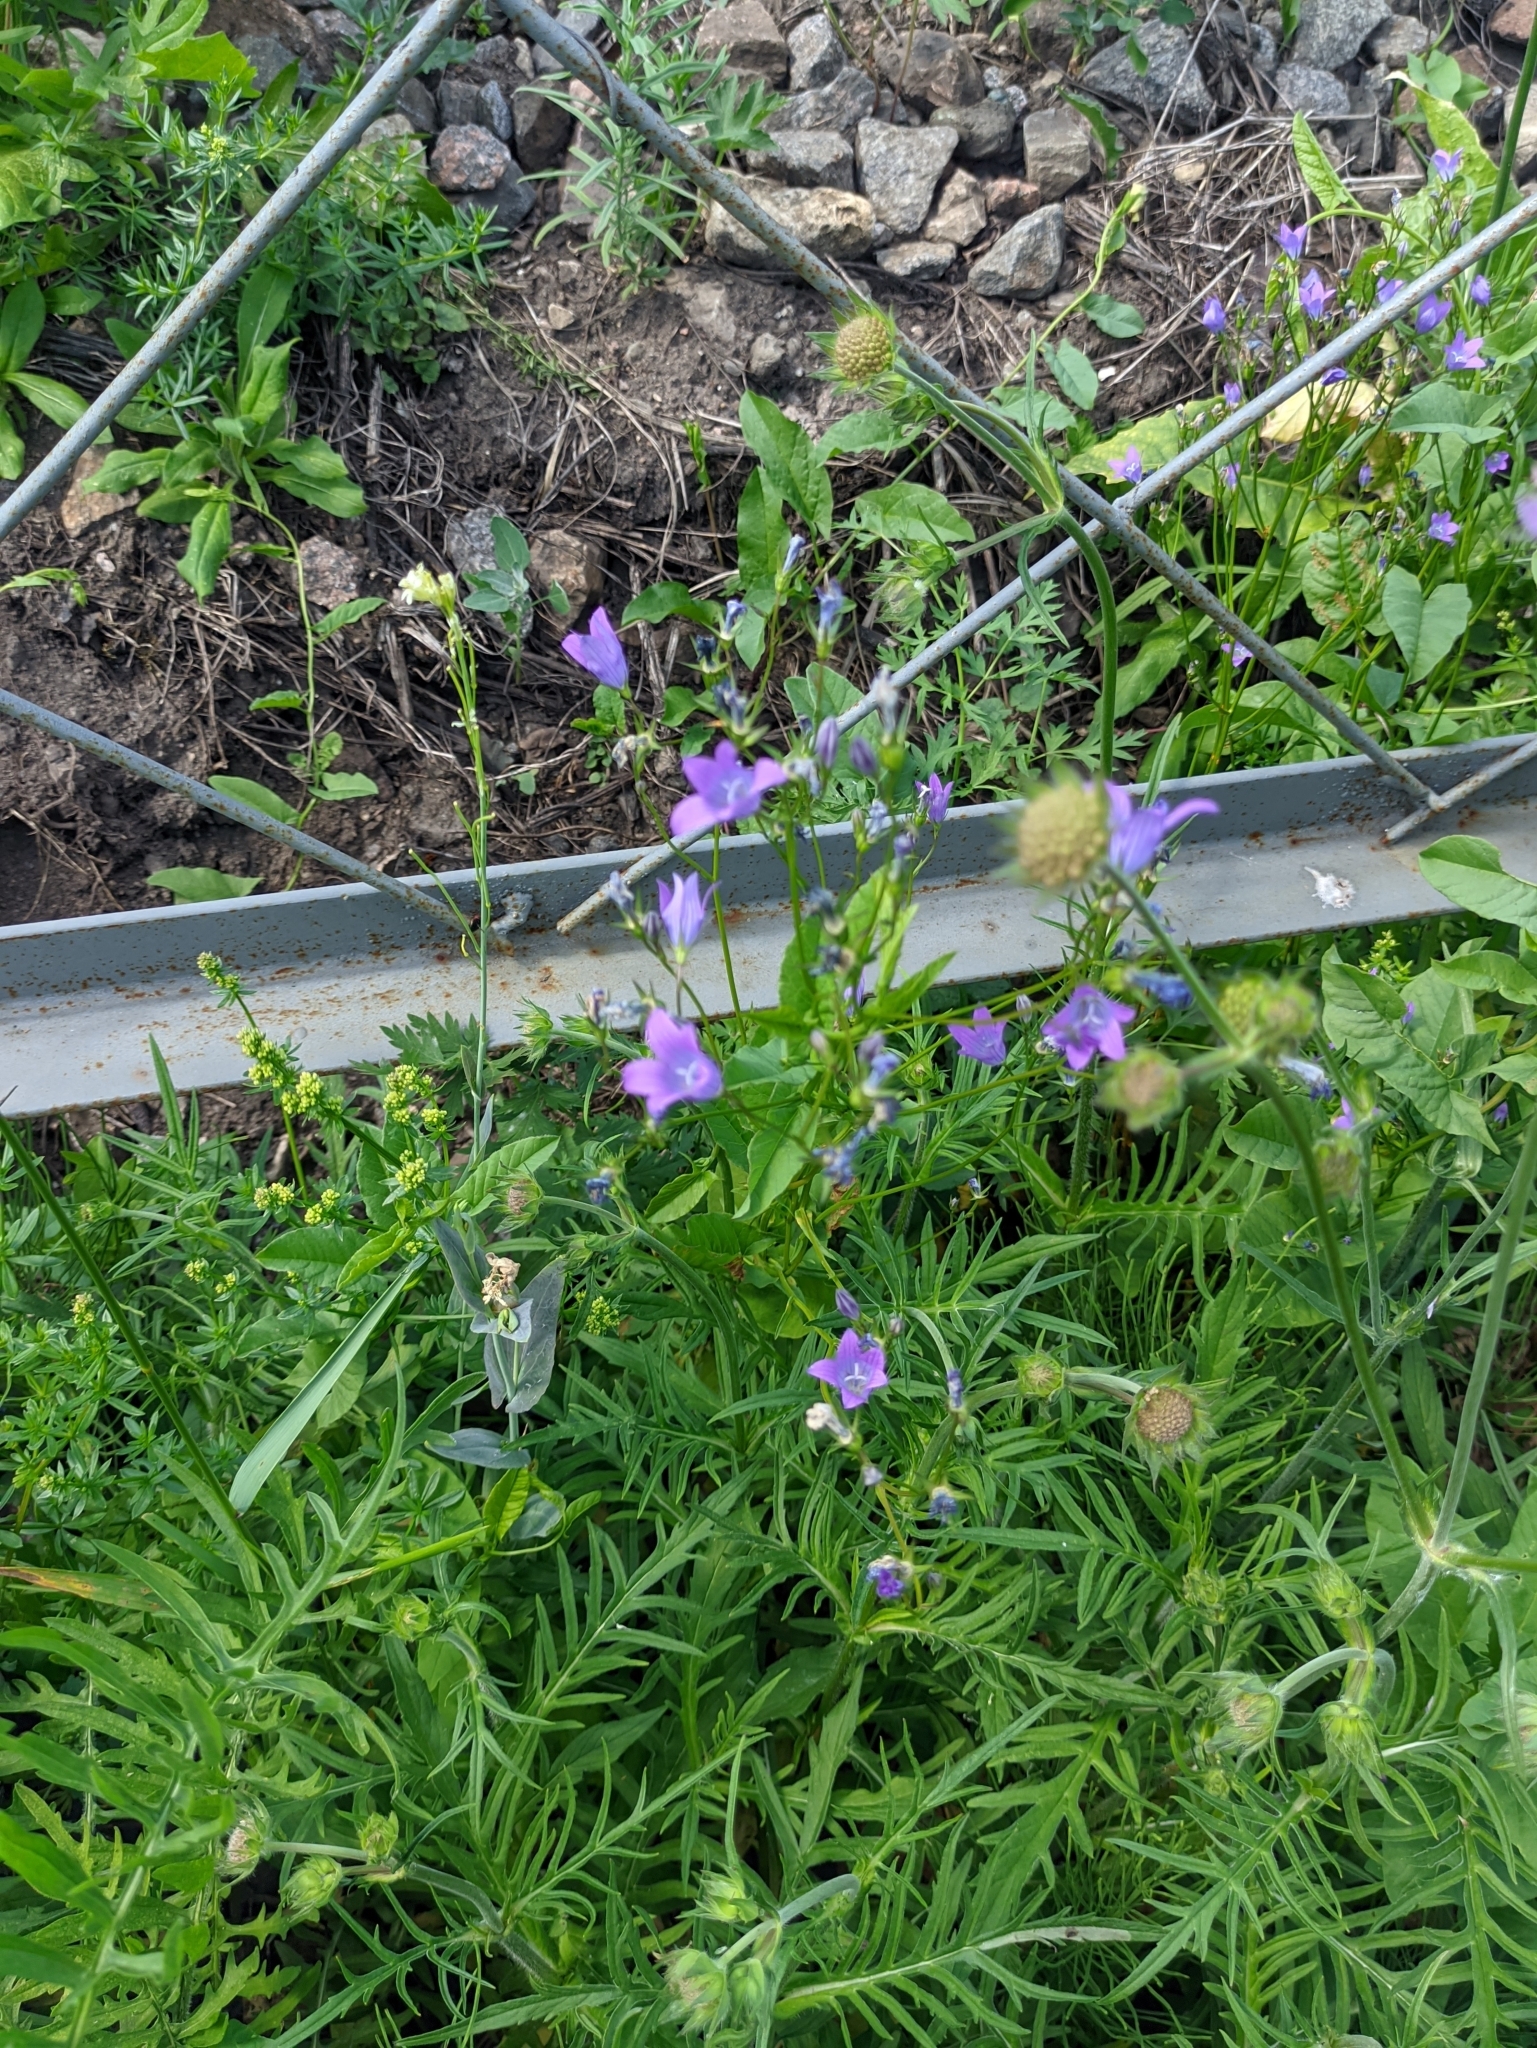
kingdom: Plantae
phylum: Tracheophyta
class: Magnoliopsida
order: Asterales
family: Campanulaceae
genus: Campanula
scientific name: Campanula patula
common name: Spreading bellflower
